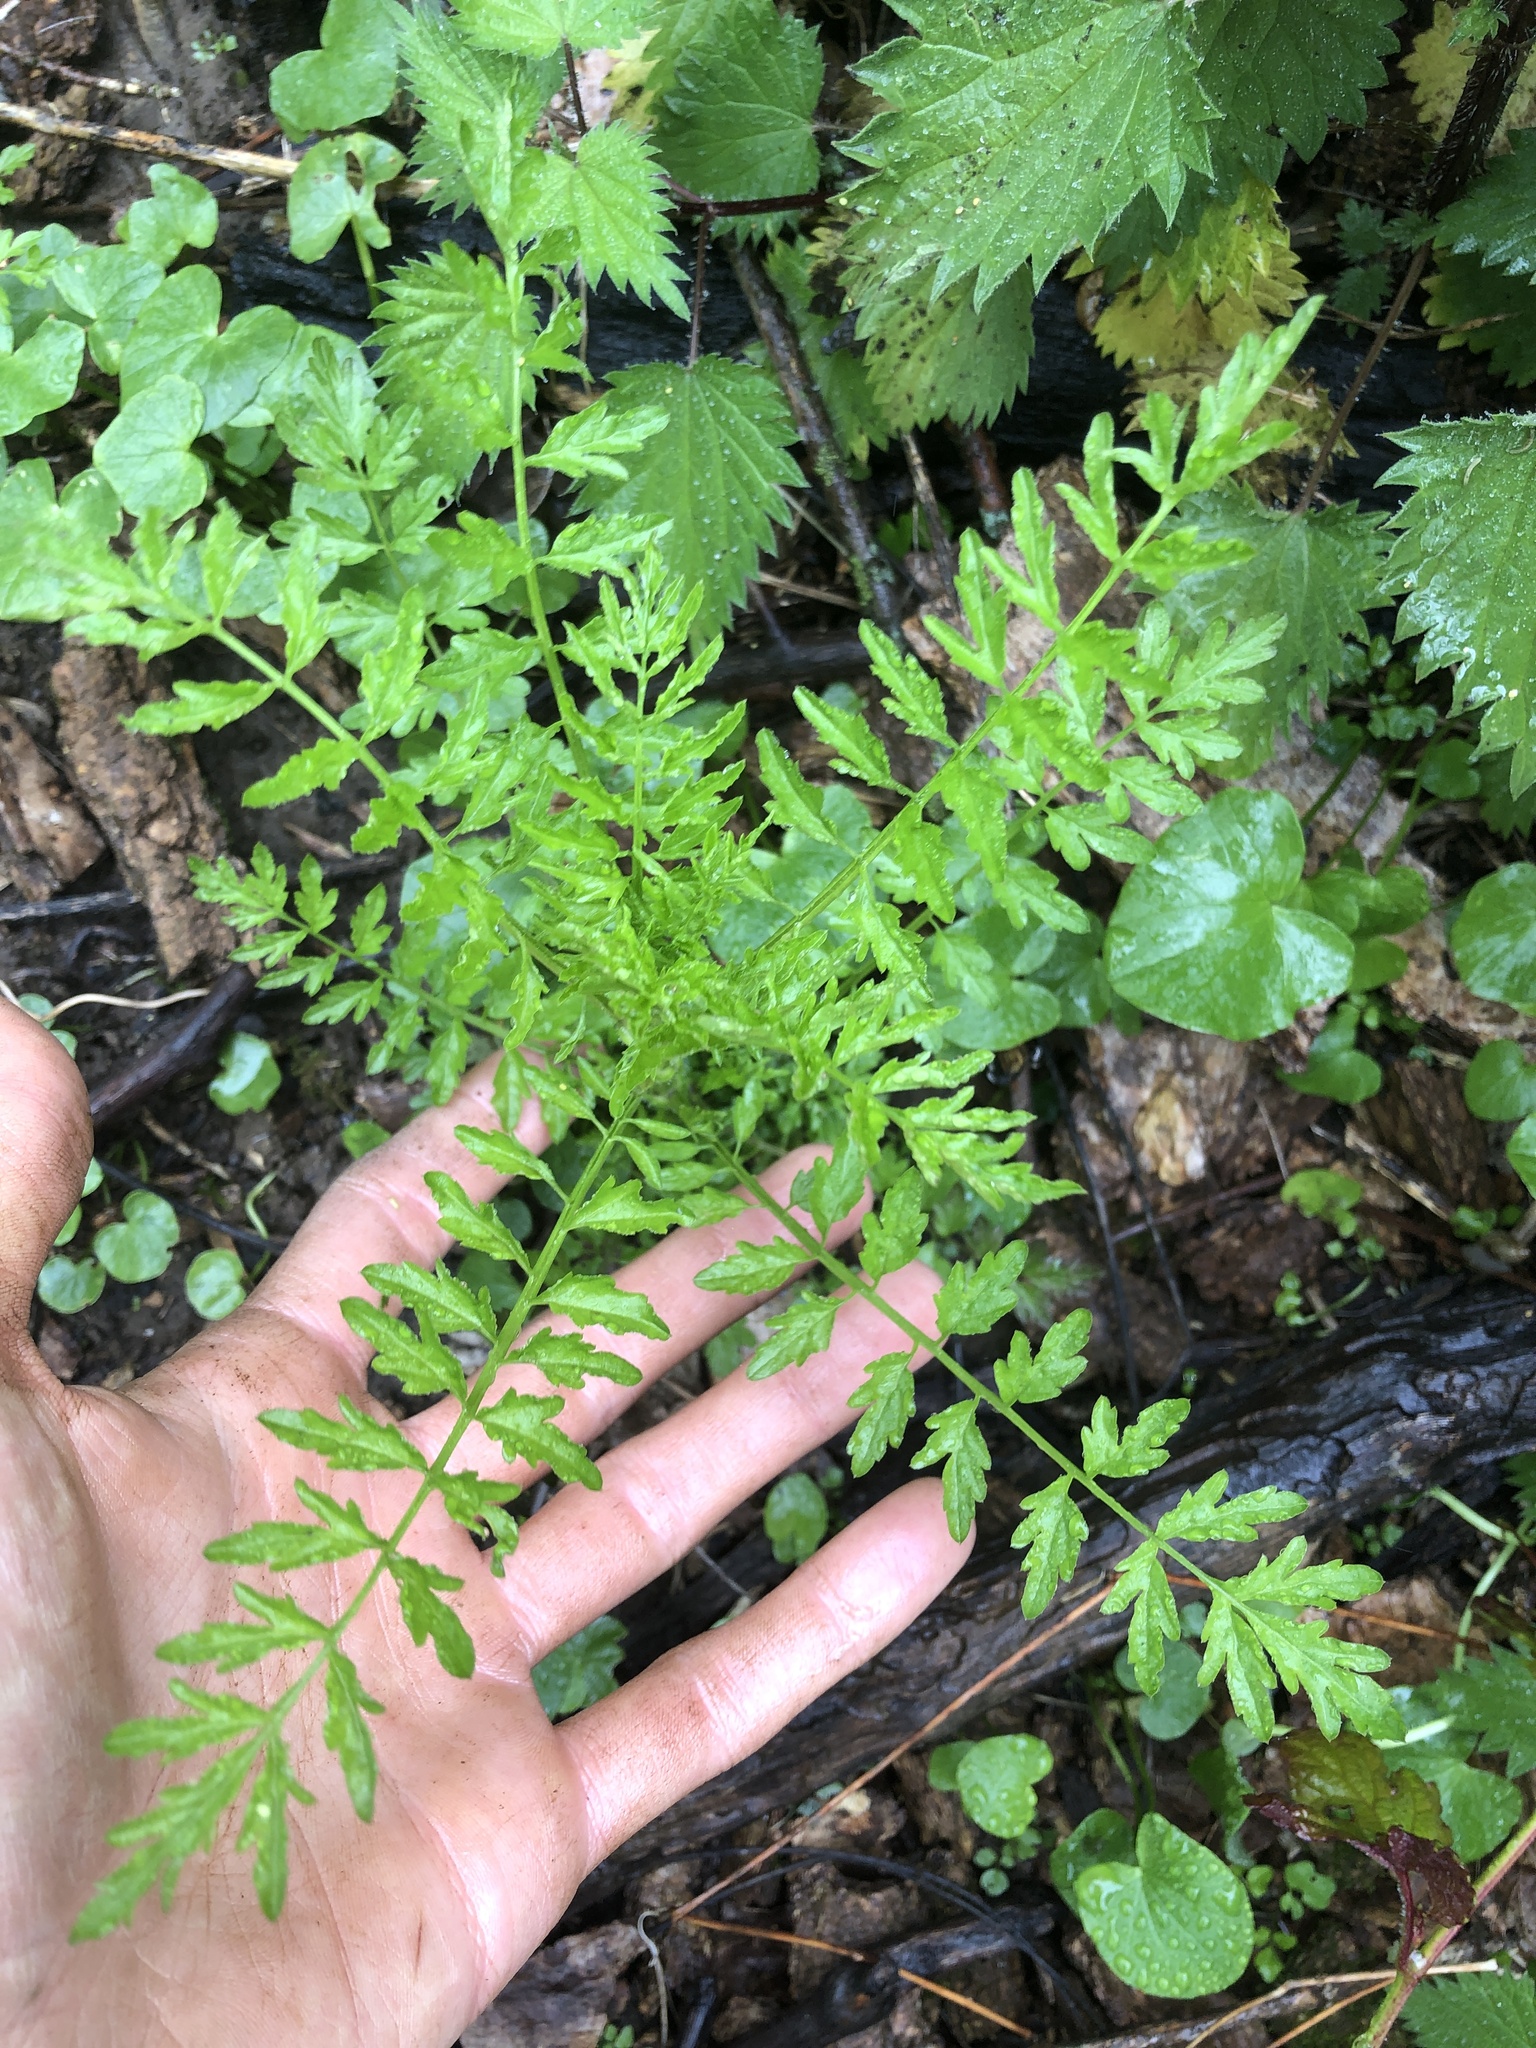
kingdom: Plantae
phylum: Tracheophyta
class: Magnoliopsida
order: Brassicales
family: Brassicaceae
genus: Cardamine
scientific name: Cardamine impatiens
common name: Narrow-leaved bitter-cress
